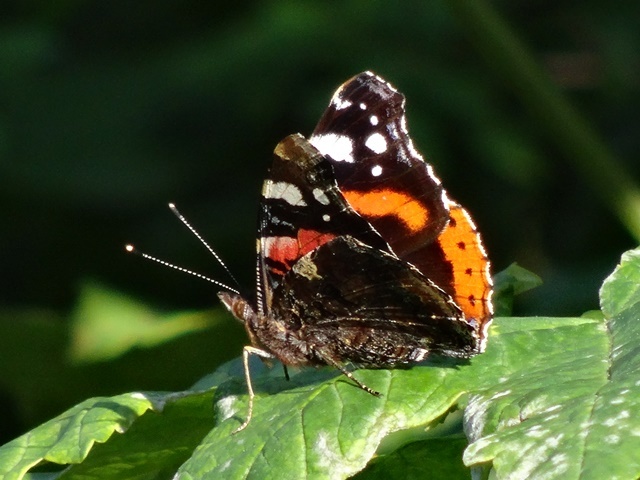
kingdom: Animalia
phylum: Arthropoda
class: Insecta
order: Lepidoptera
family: Nymphalidae
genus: Vanessa
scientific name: Vanessa atalanta
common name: Red admiral
